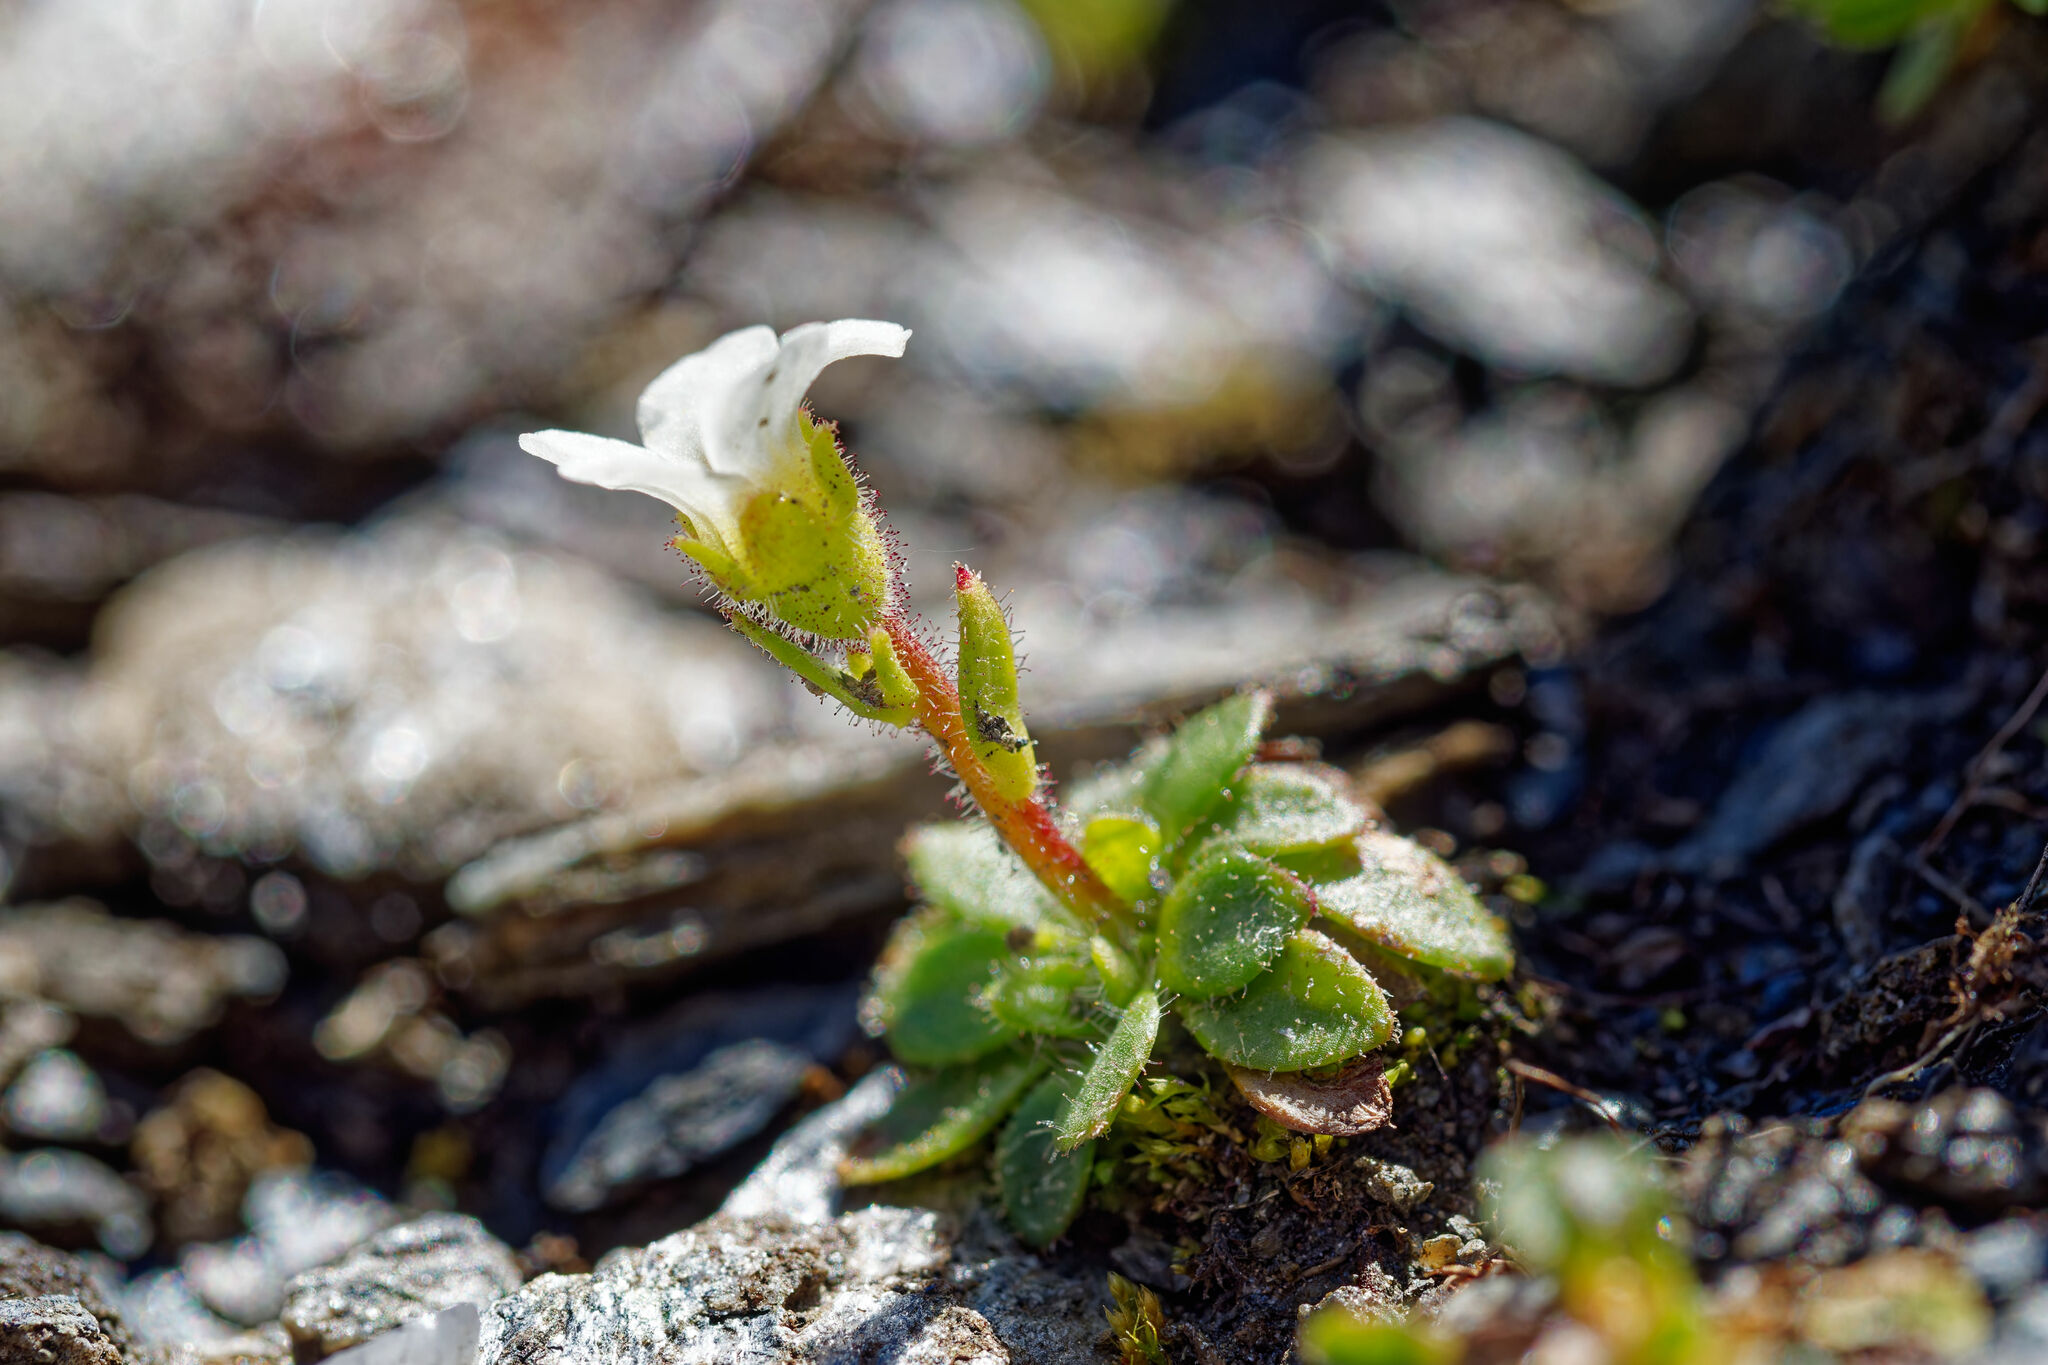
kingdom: Plantae
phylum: Tracheophyta
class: Magnoliopsida
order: Saxifragales
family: Saxifragaceae
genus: Saxifraga
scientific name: Saxifraga androsacea
